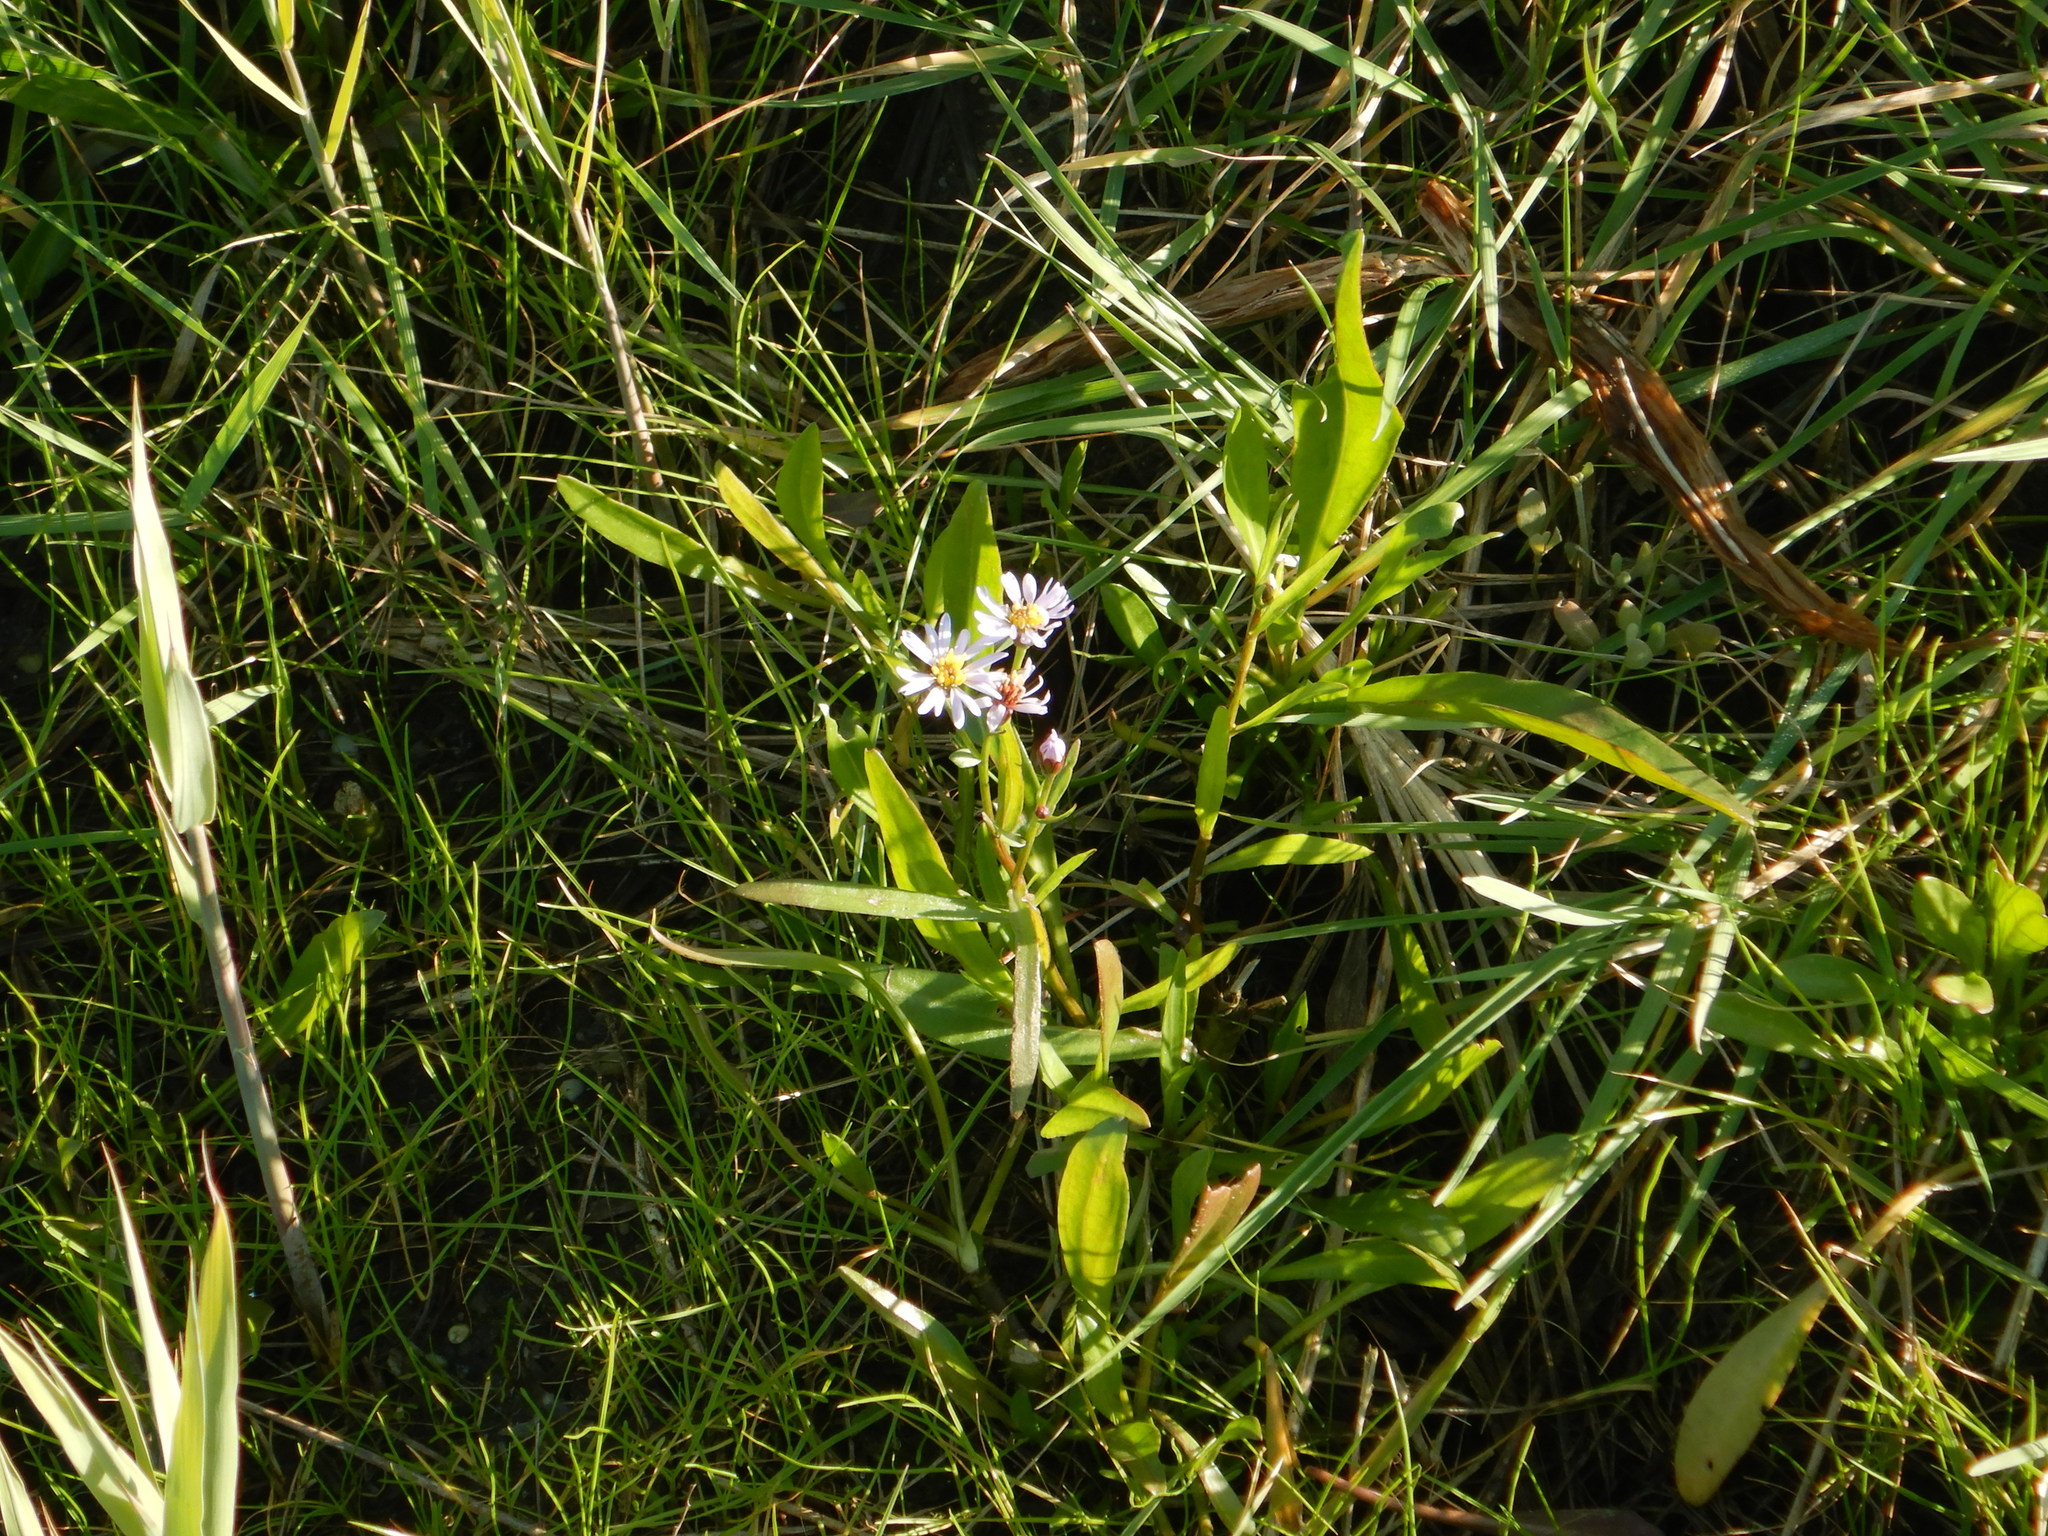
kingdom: Plantae
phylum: Tracheophyta
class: Magnoliopsida
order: Asterales
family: Asteraceae
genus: Tripolium
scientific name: Tripolium pannonicum
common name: Sea aster
